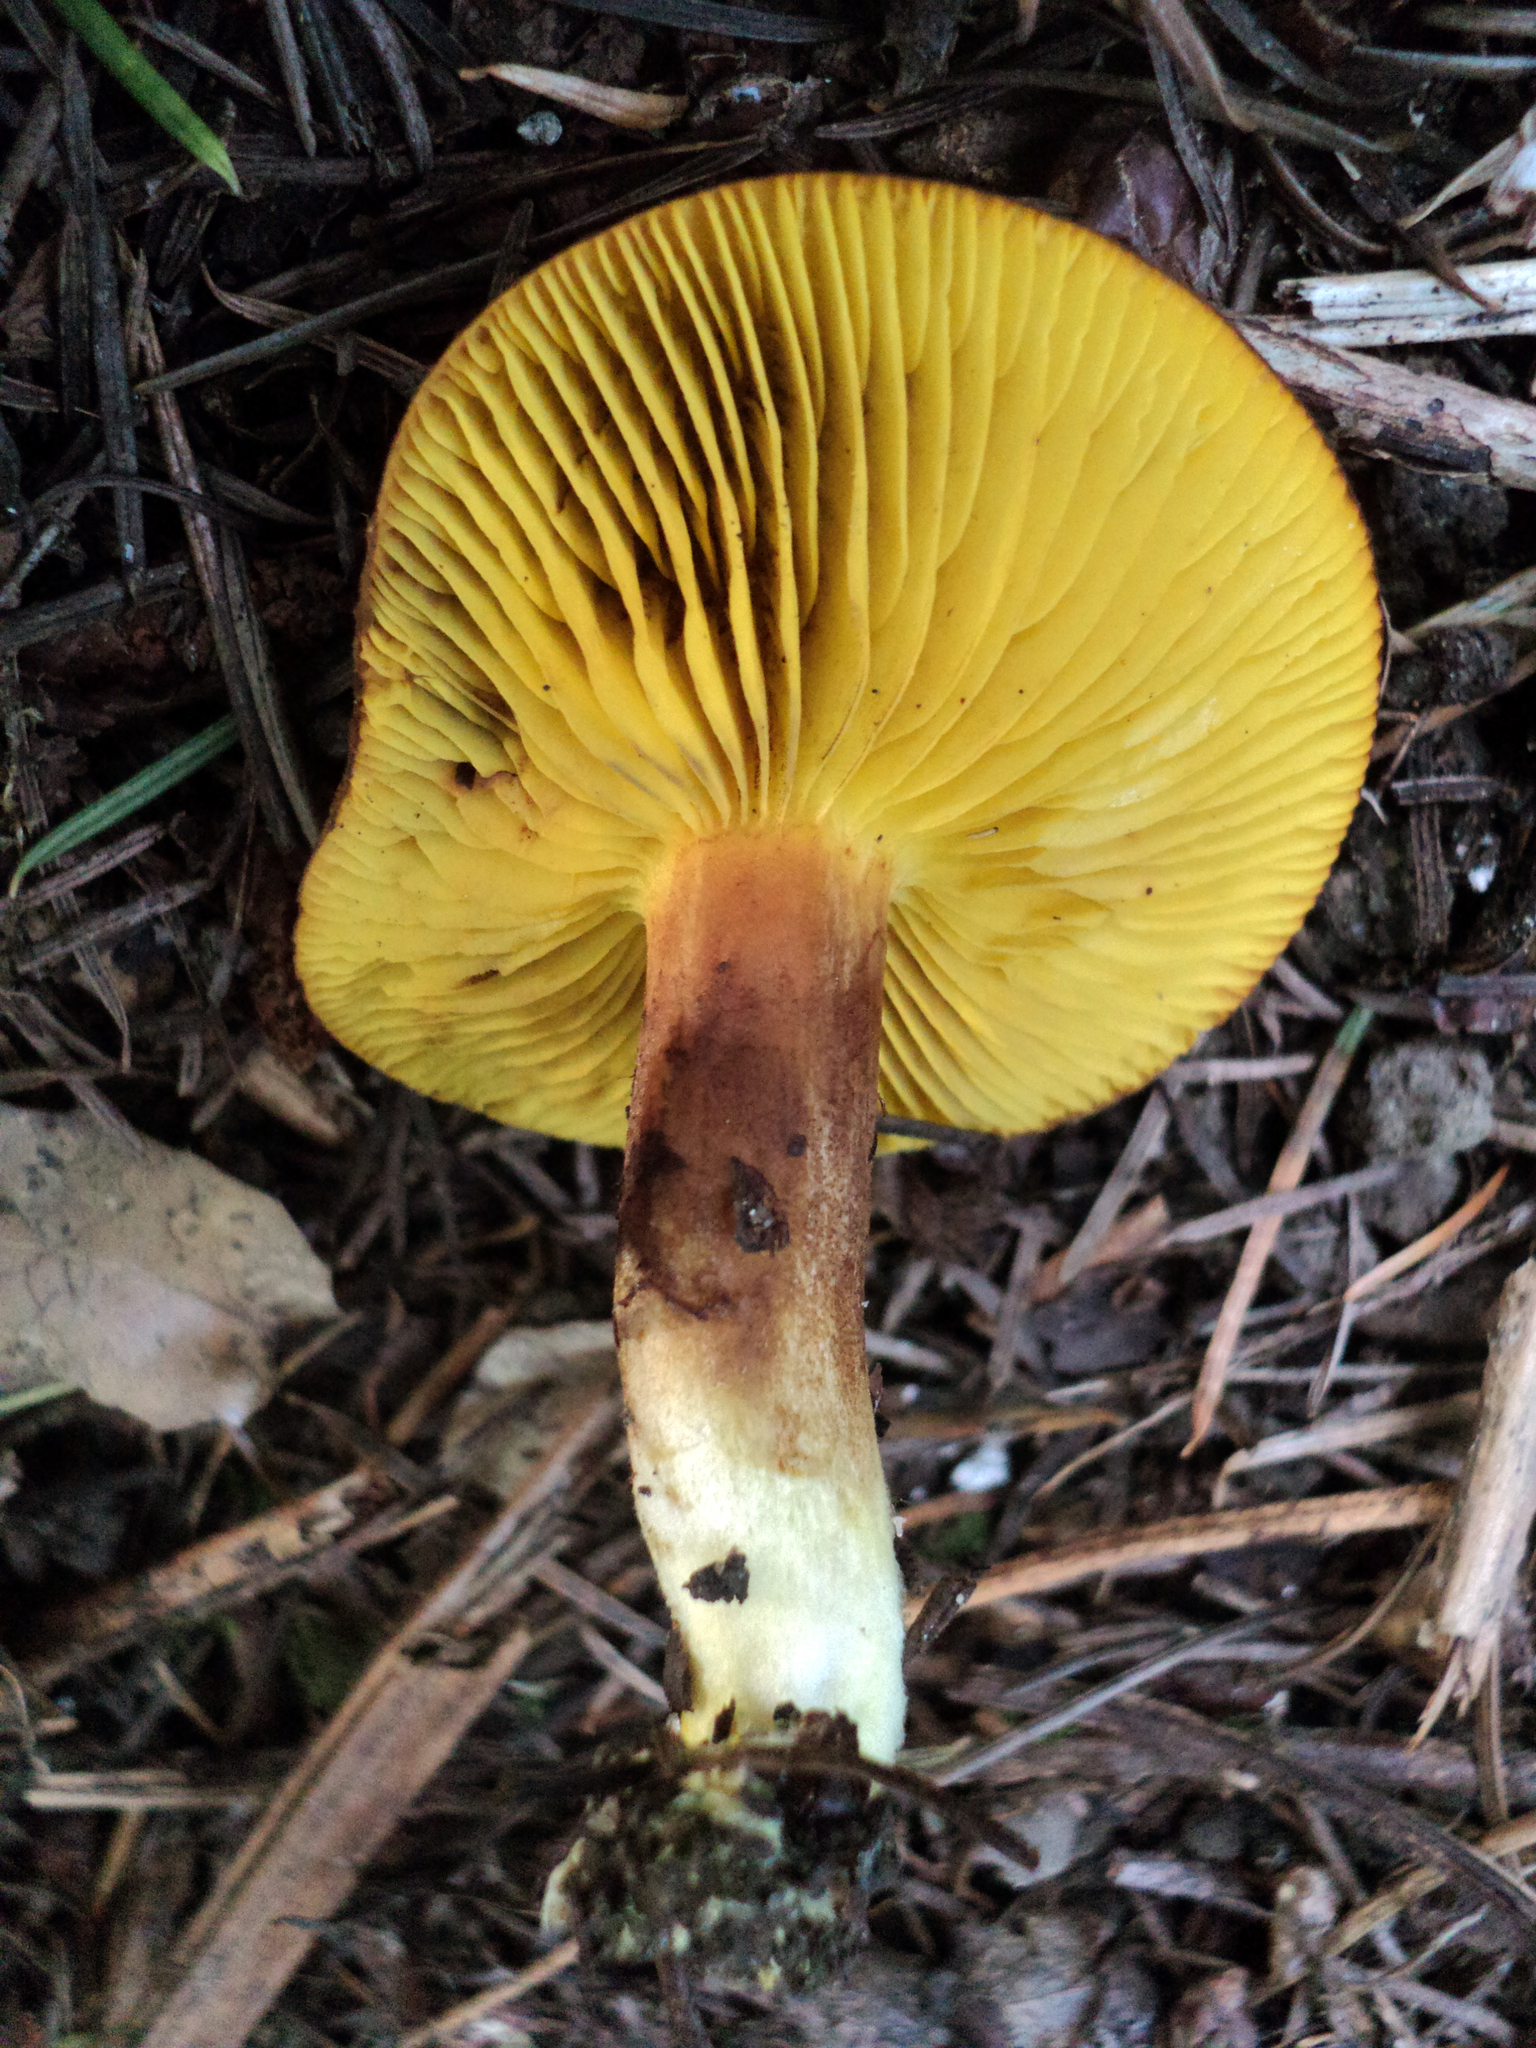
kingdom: Fungi
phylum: Basidiomycota
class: Agaricomycetes
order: Boletales
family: Boletaceae
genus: Phylloporus
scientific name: Phylloporus arenicola
